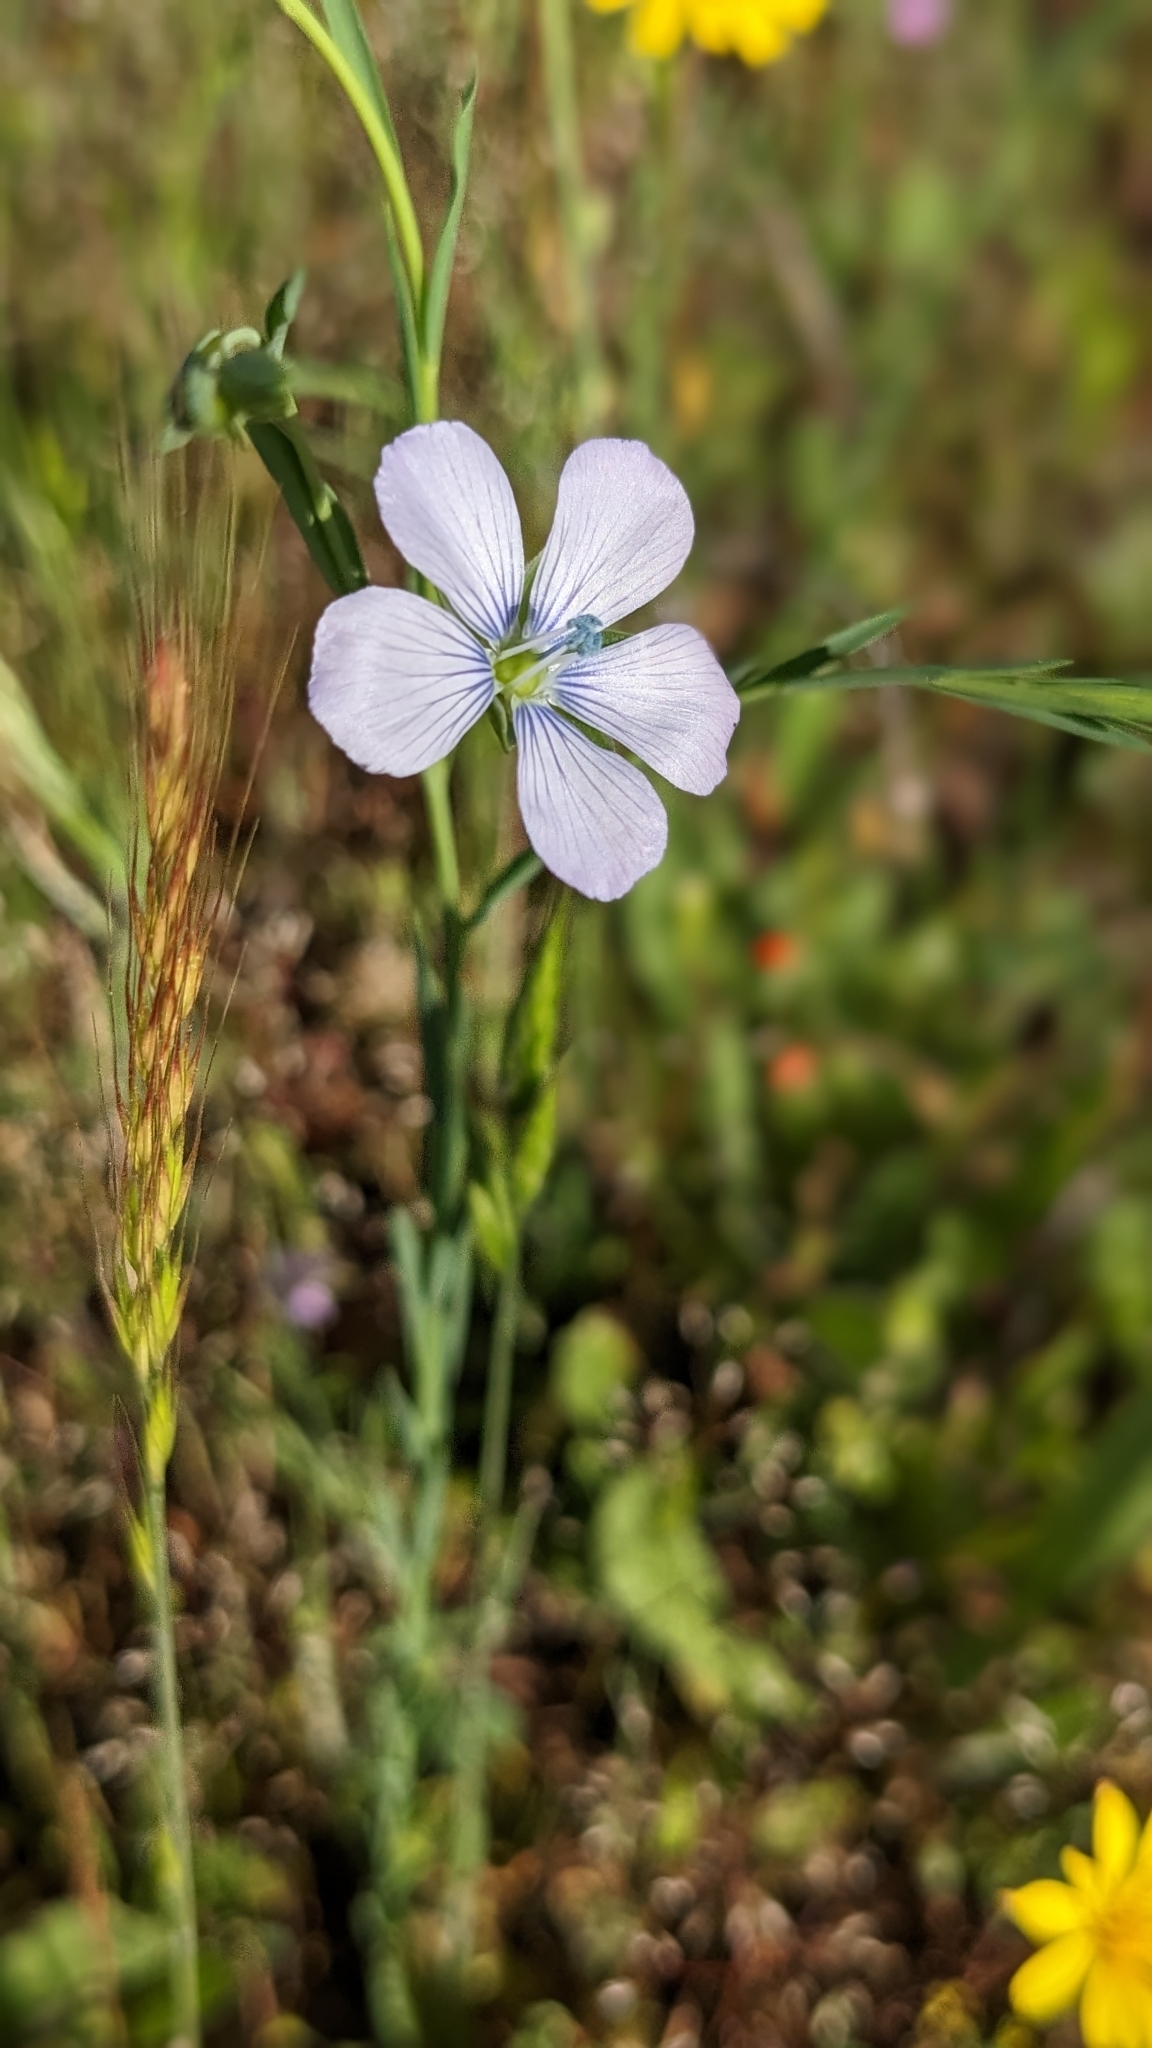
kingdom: Plantae
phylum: Tracheophyta
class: Magnoliopsida
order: Malpighiales
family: Linaceae
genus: Linum
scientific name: Linum bienne
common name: Pale flax
